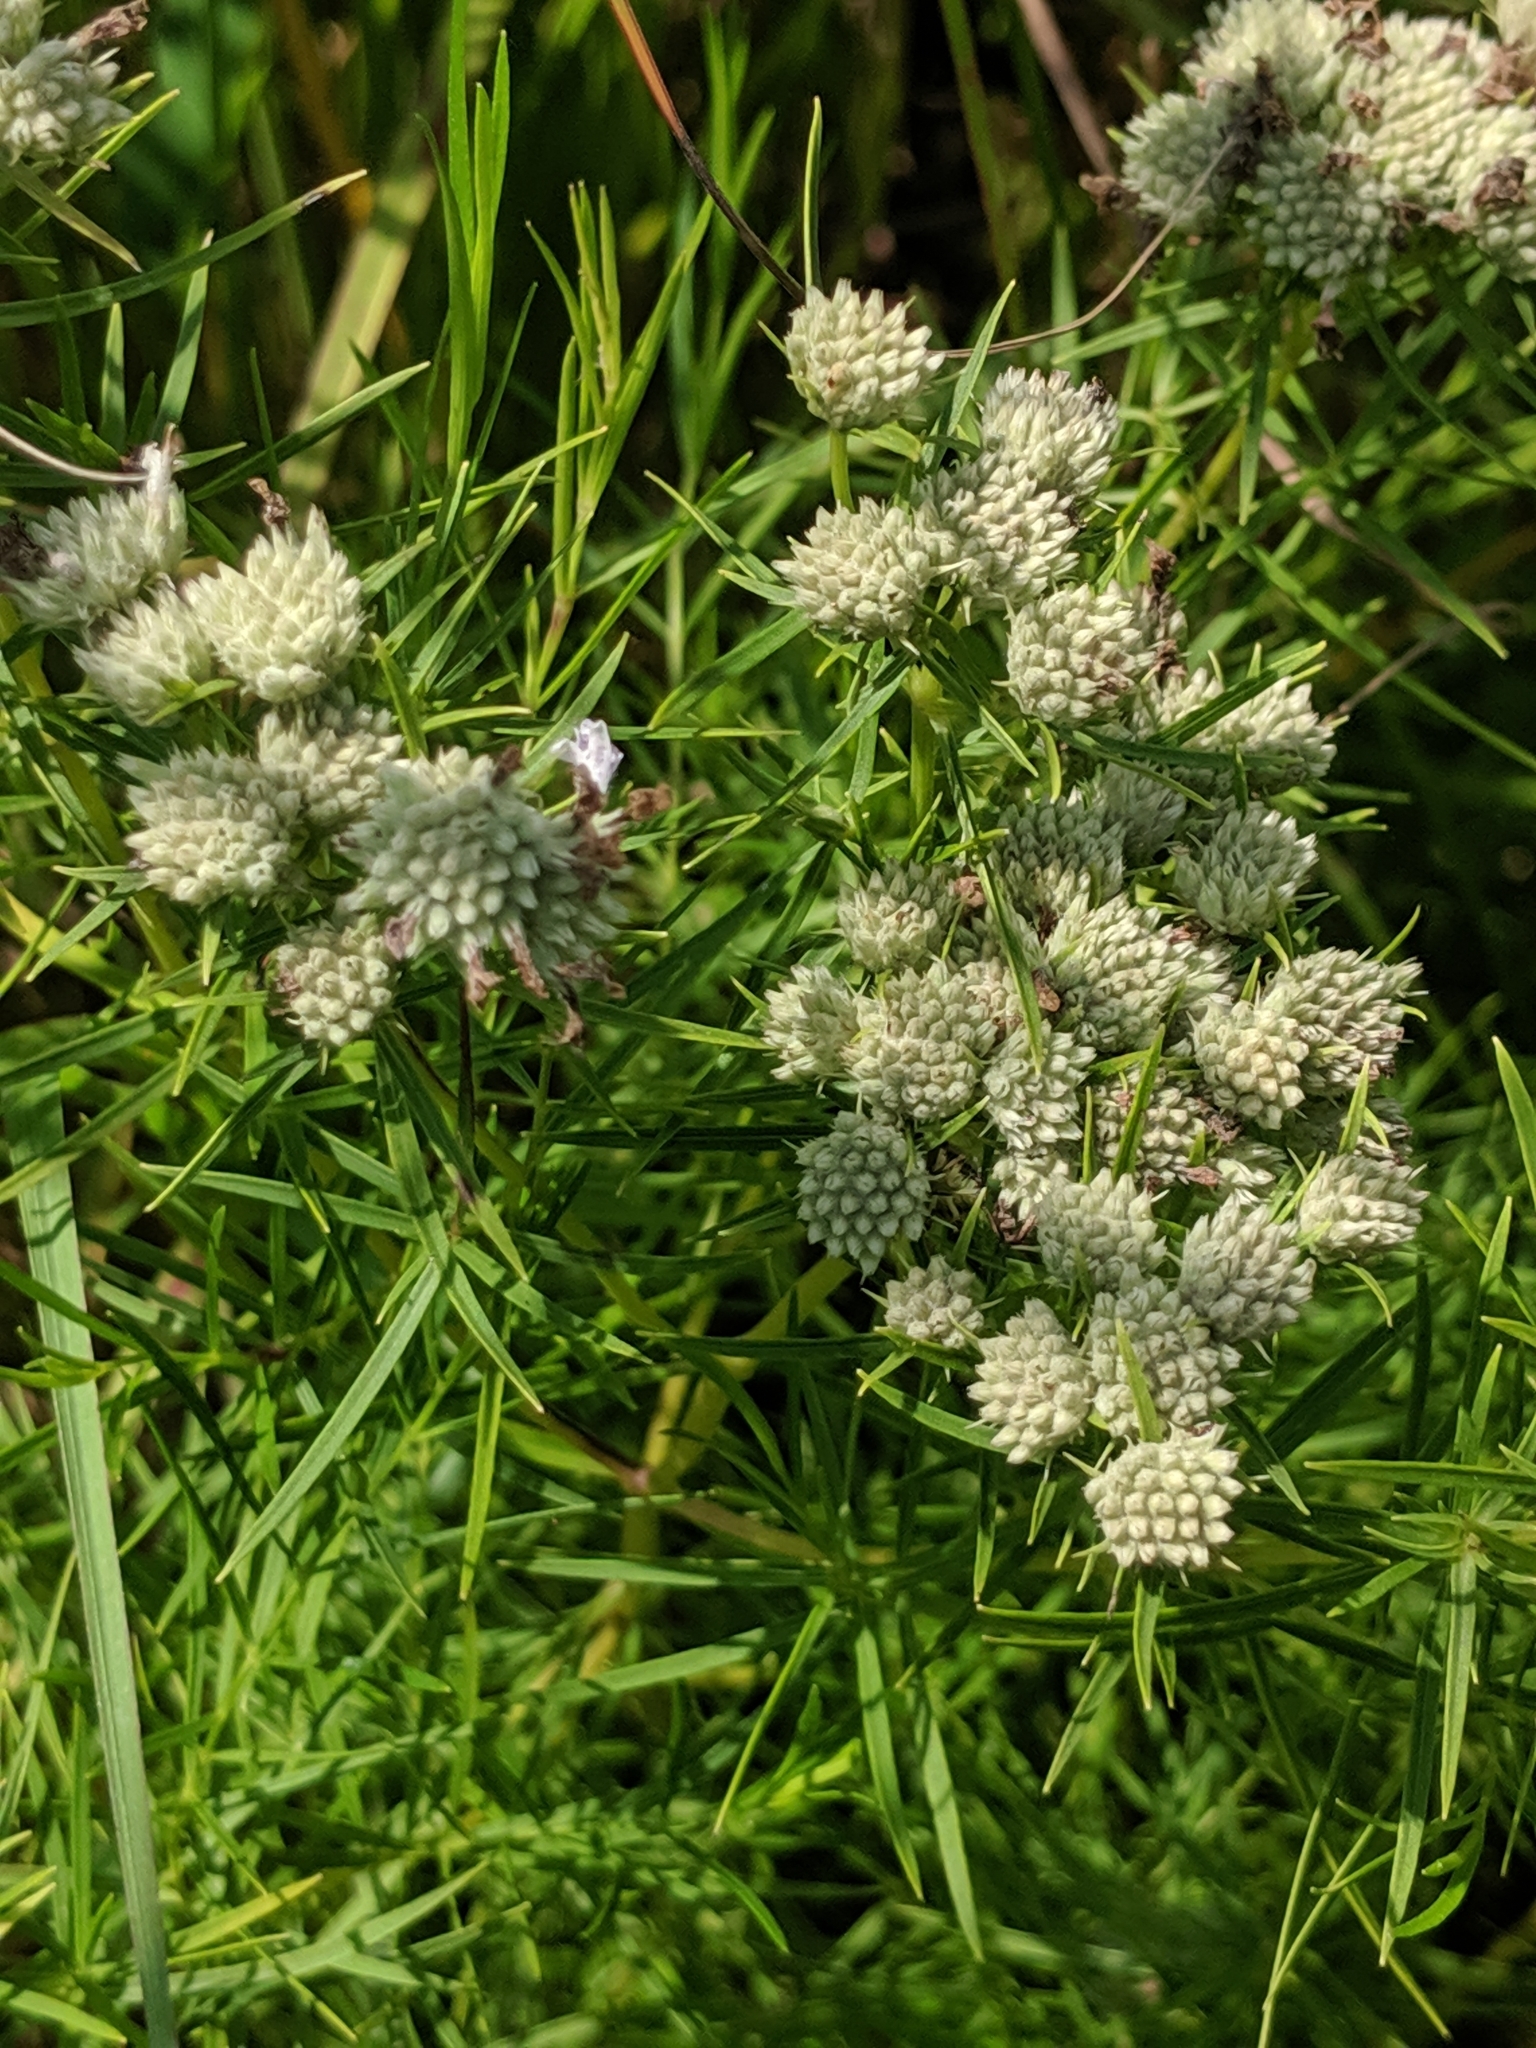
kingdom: Plantae
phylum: Tracheophyta
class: Magnoliopsida
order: Lamiales
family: Lamiaceae
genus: Pycnanthemum
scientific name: Pycnanthemum tenuifolium
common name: Narrow-leaf mountain-mint
